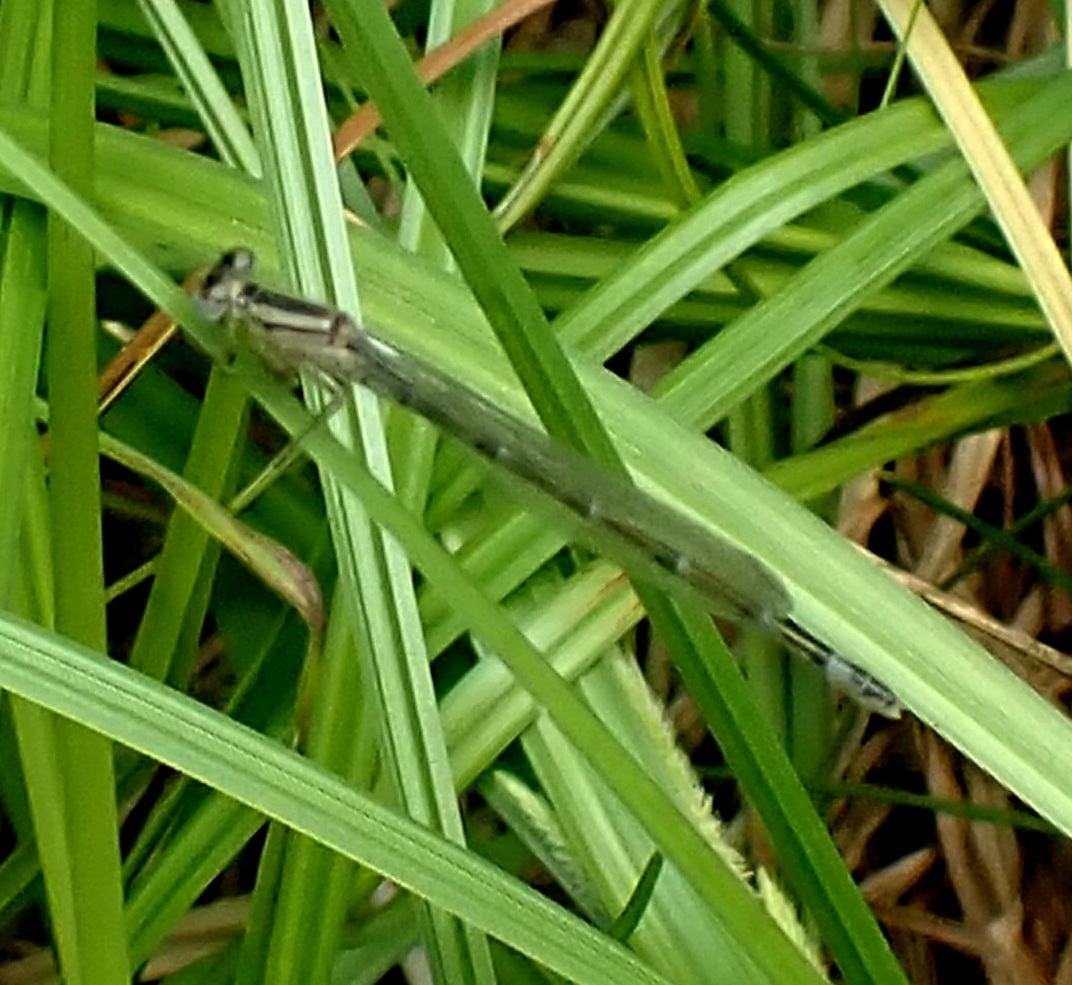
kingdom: Animalia
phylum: Arthropoda
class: Insecta
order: Odonata
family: Coenagrionidae
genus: Enallagma
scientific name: Enallagma cyathigerum
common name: Common blue damselfly
